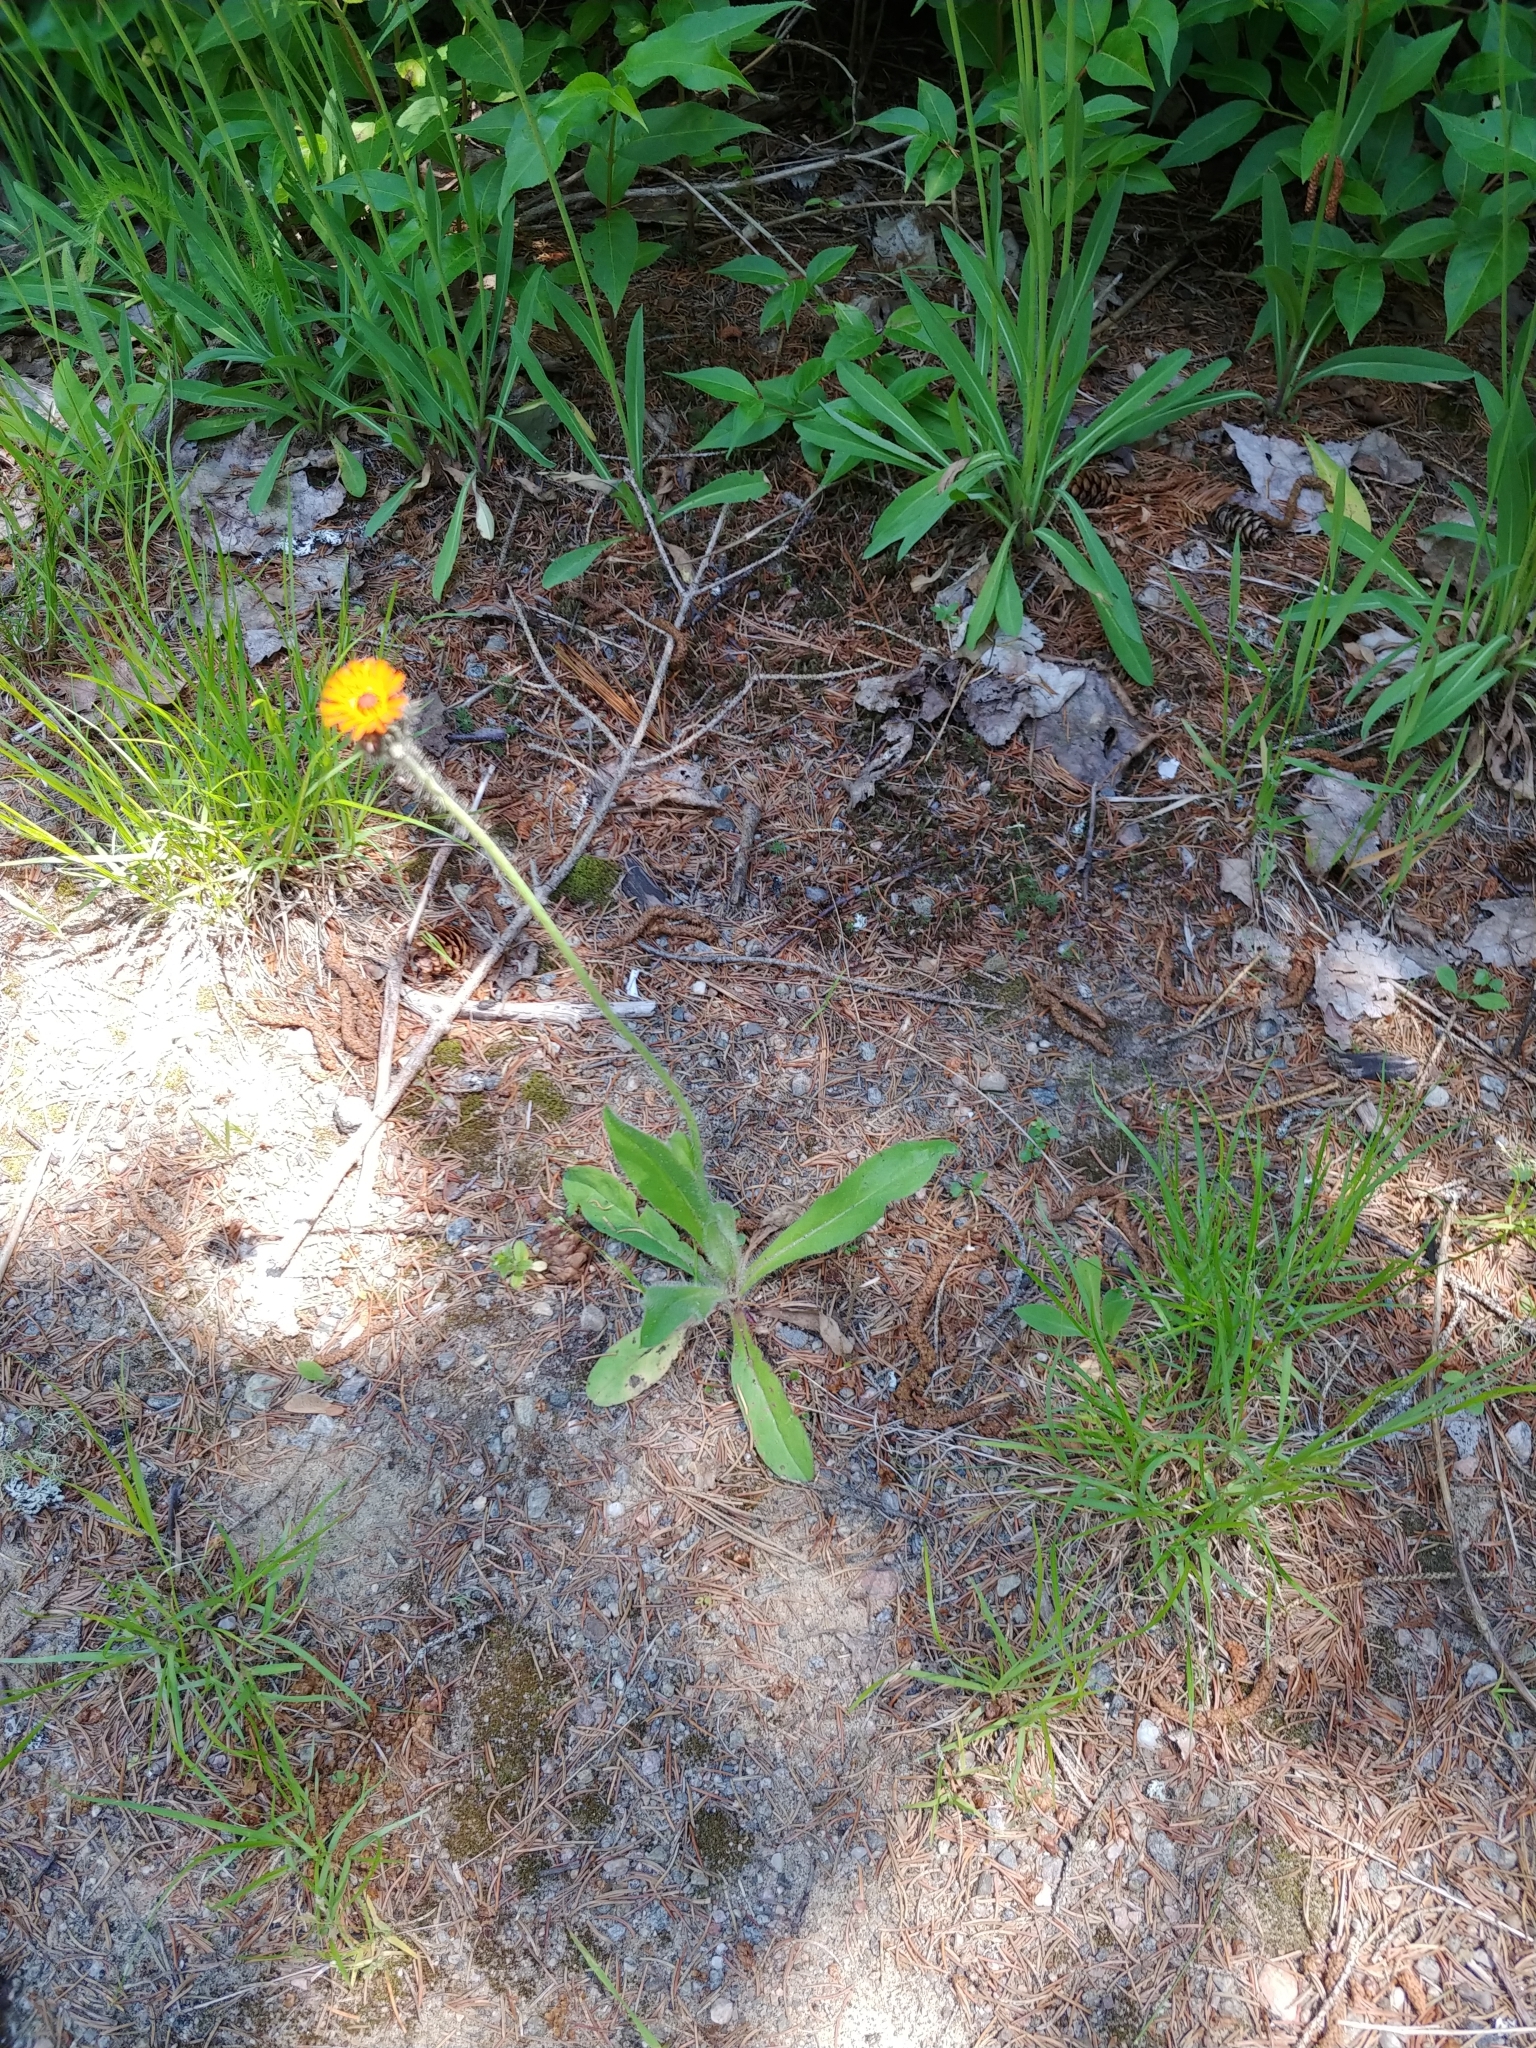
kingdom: Plantae
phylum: Tracheophyta
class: Magnoliopsida
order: Asterales
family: Asteraceae
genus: Pilosella
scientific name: Pilosella aurantiaca
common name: Fox-and-cubs
